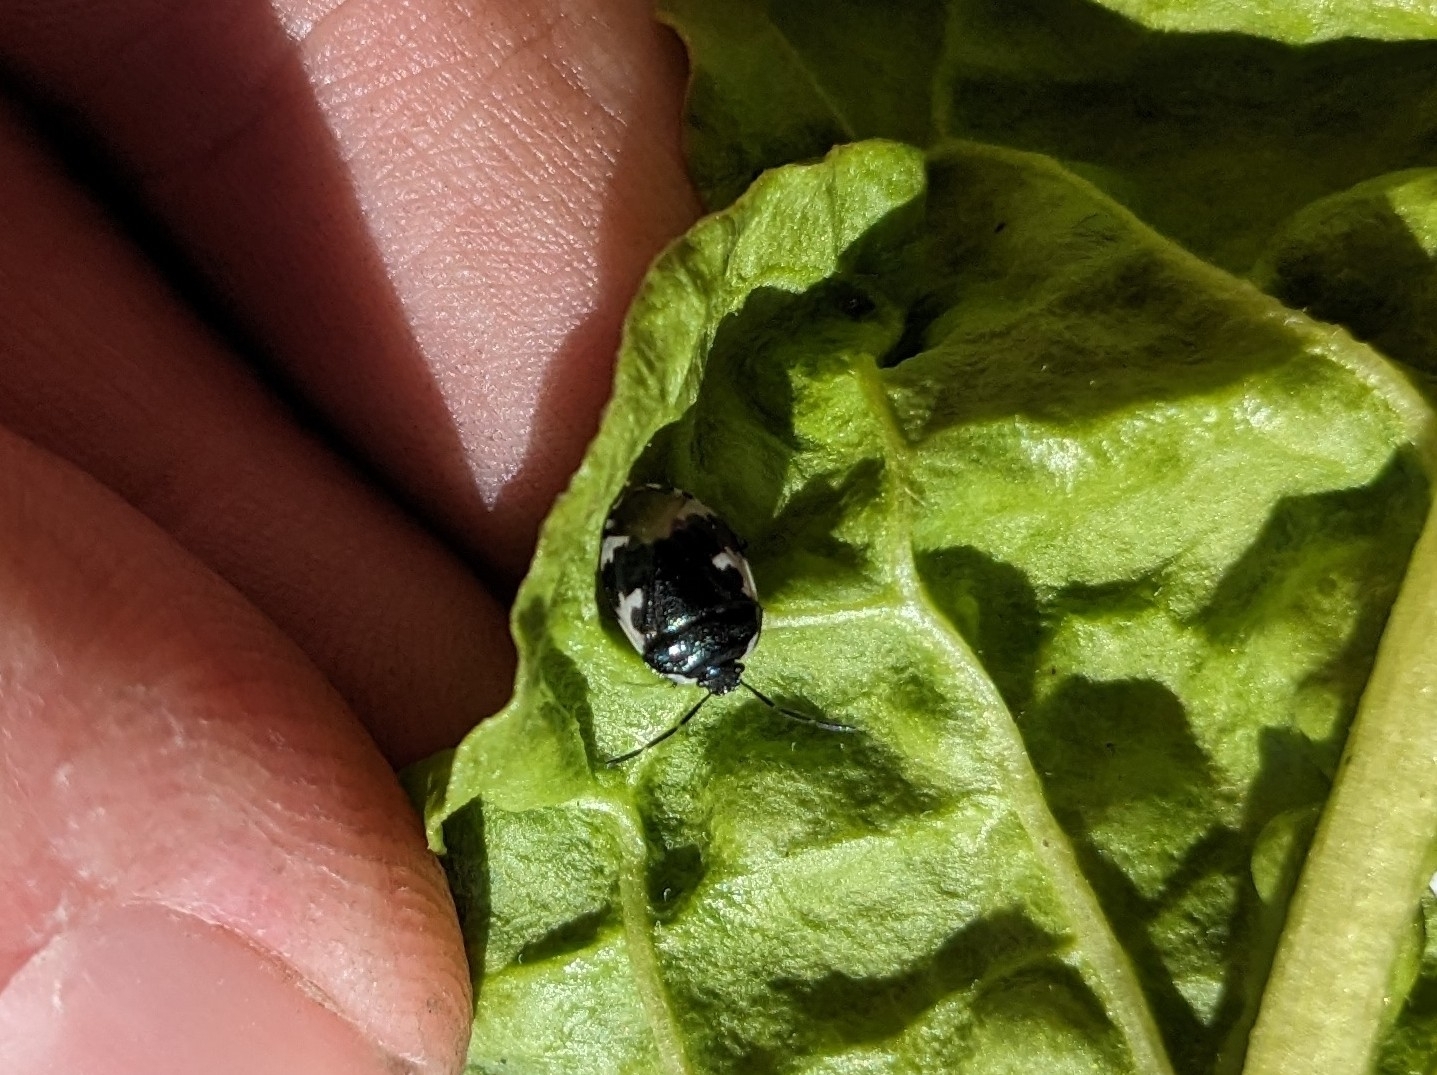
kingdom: Animalia
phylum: Arthropoda
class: Insecta
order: Hemiptera
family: Cydnidae
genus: Tritomegas
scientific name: Tritomegas bicolor
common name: Pied shieldbug
